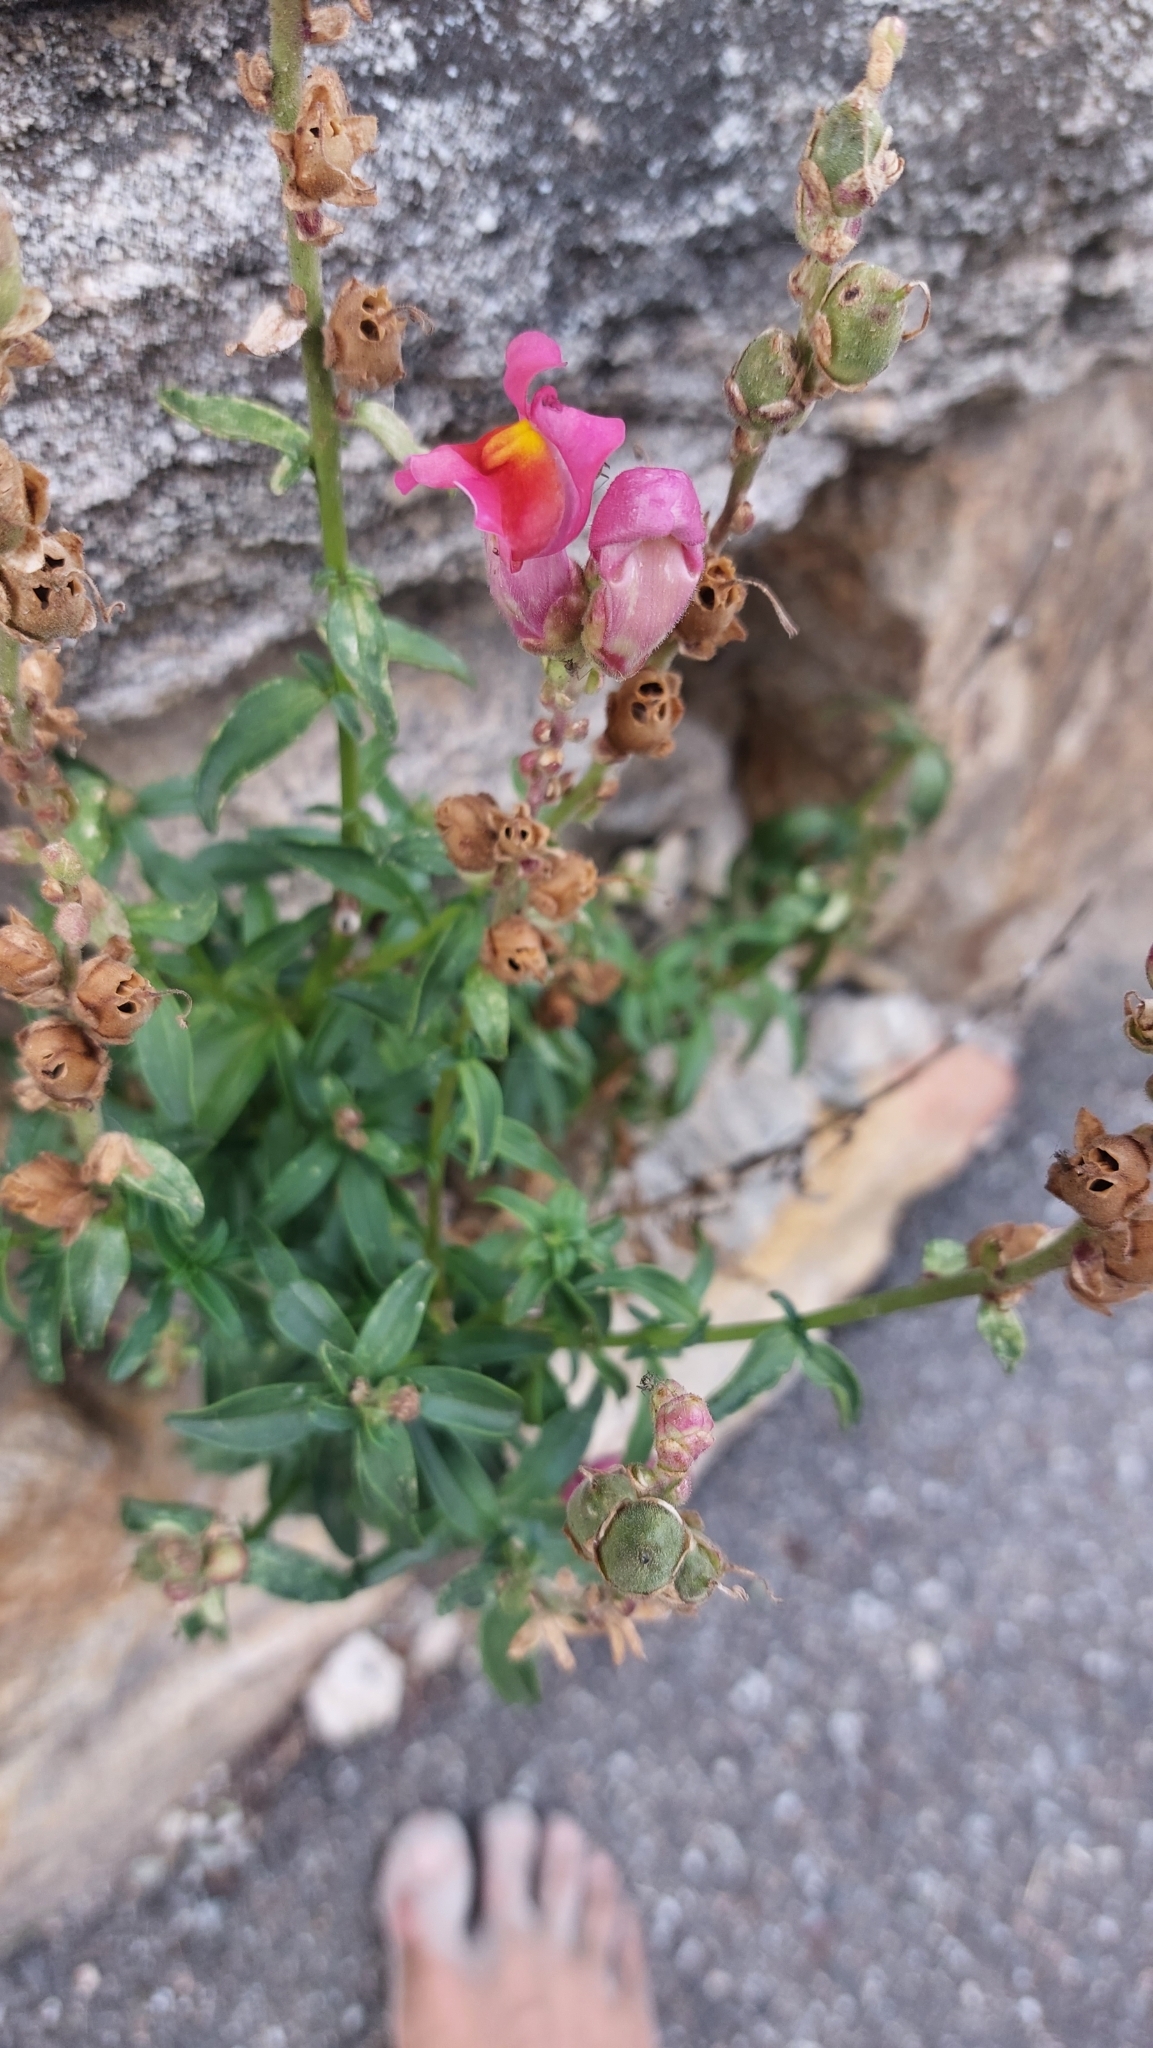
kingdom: Plantae
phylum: Tracheophyta
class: Magnoliopsida
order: Lamiales
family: Plantaginaceae
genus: Antirrhinum
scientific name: Antirrhinum majus
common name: Snapdragon
